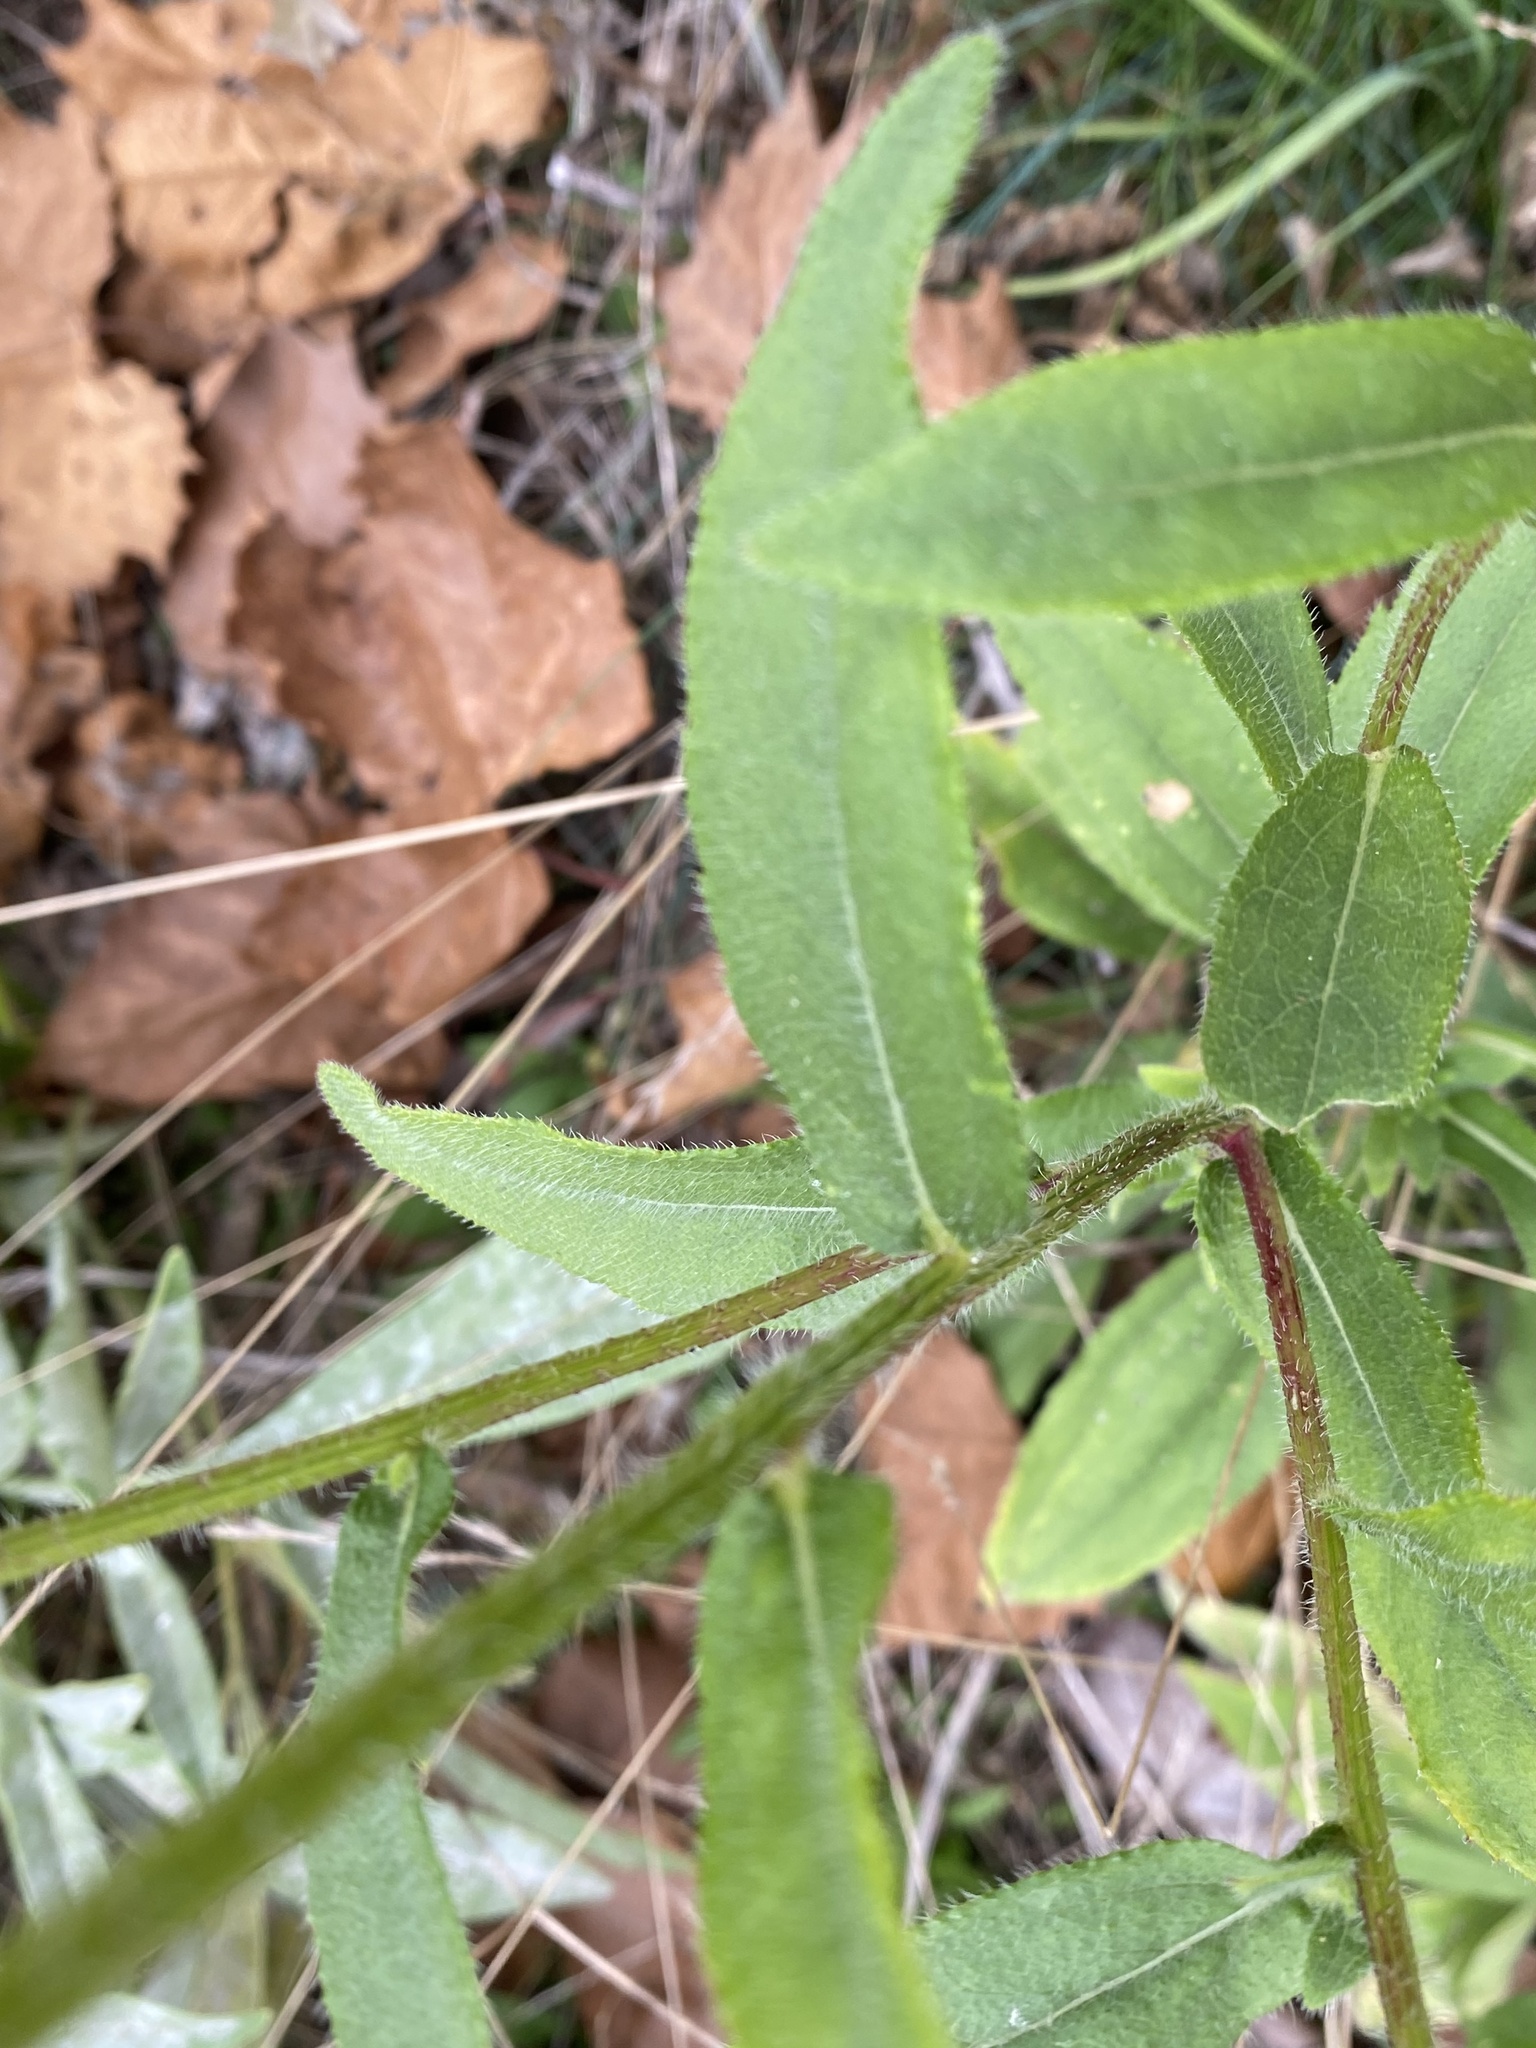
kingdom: Plantae
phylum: Tracheophyta
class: Magnoliopsida
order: Asterales
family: Asteraceae
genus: Rudbeckia
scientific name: Rudbeckia hirta
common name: Black-eyed-susan
